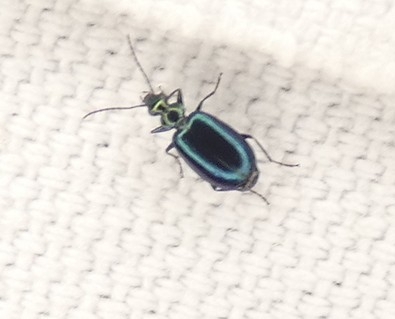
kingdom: Animalia
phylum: Arthropoda
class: Insecta
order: Coleoptera
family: Carabidae
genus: Lebia
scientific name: Lebia viridis
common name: Flower lebia beetle
